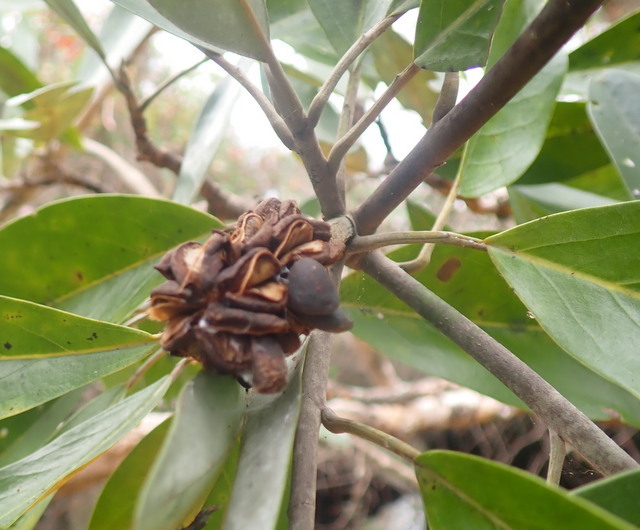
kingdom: Plantae
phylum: Tracheophyta
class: Magnoliopsida
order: Magnoliales
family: Magnoliaceae
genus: Magnolia
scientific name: Magnolia virginiana
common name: Swamp bay
